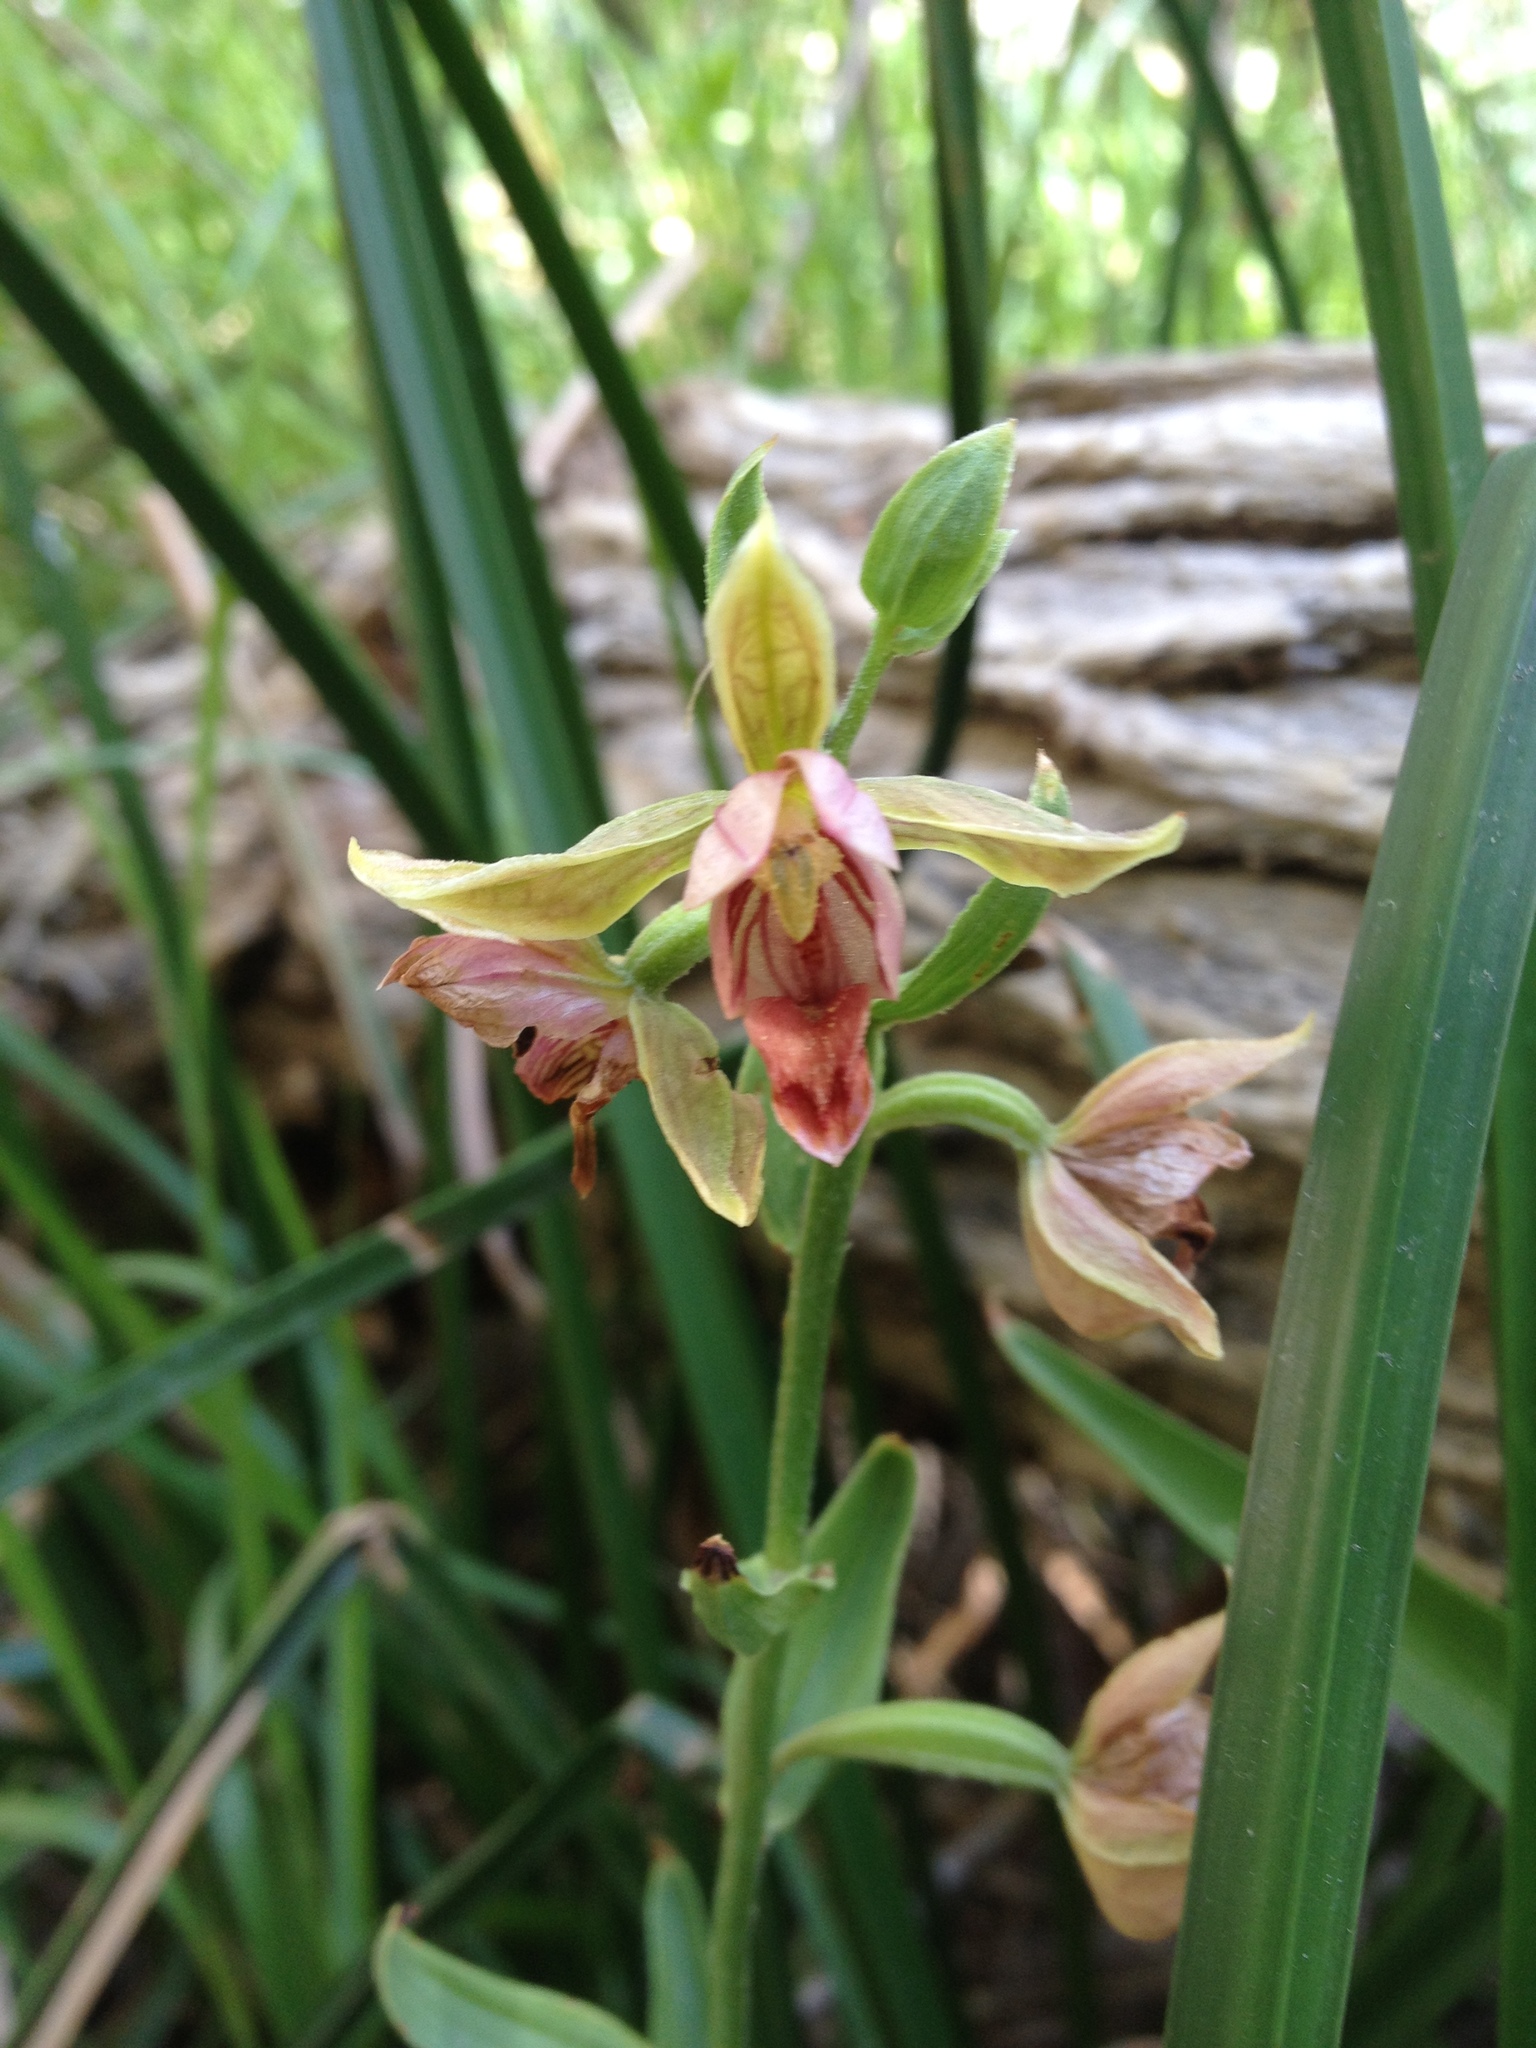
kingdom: Plantae
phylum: Tracheophyta
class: Liliopsida
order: Asparagales
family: Orchidaceae
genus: Epipactis
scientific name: Epipactis gigantea
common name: Chatterbox
